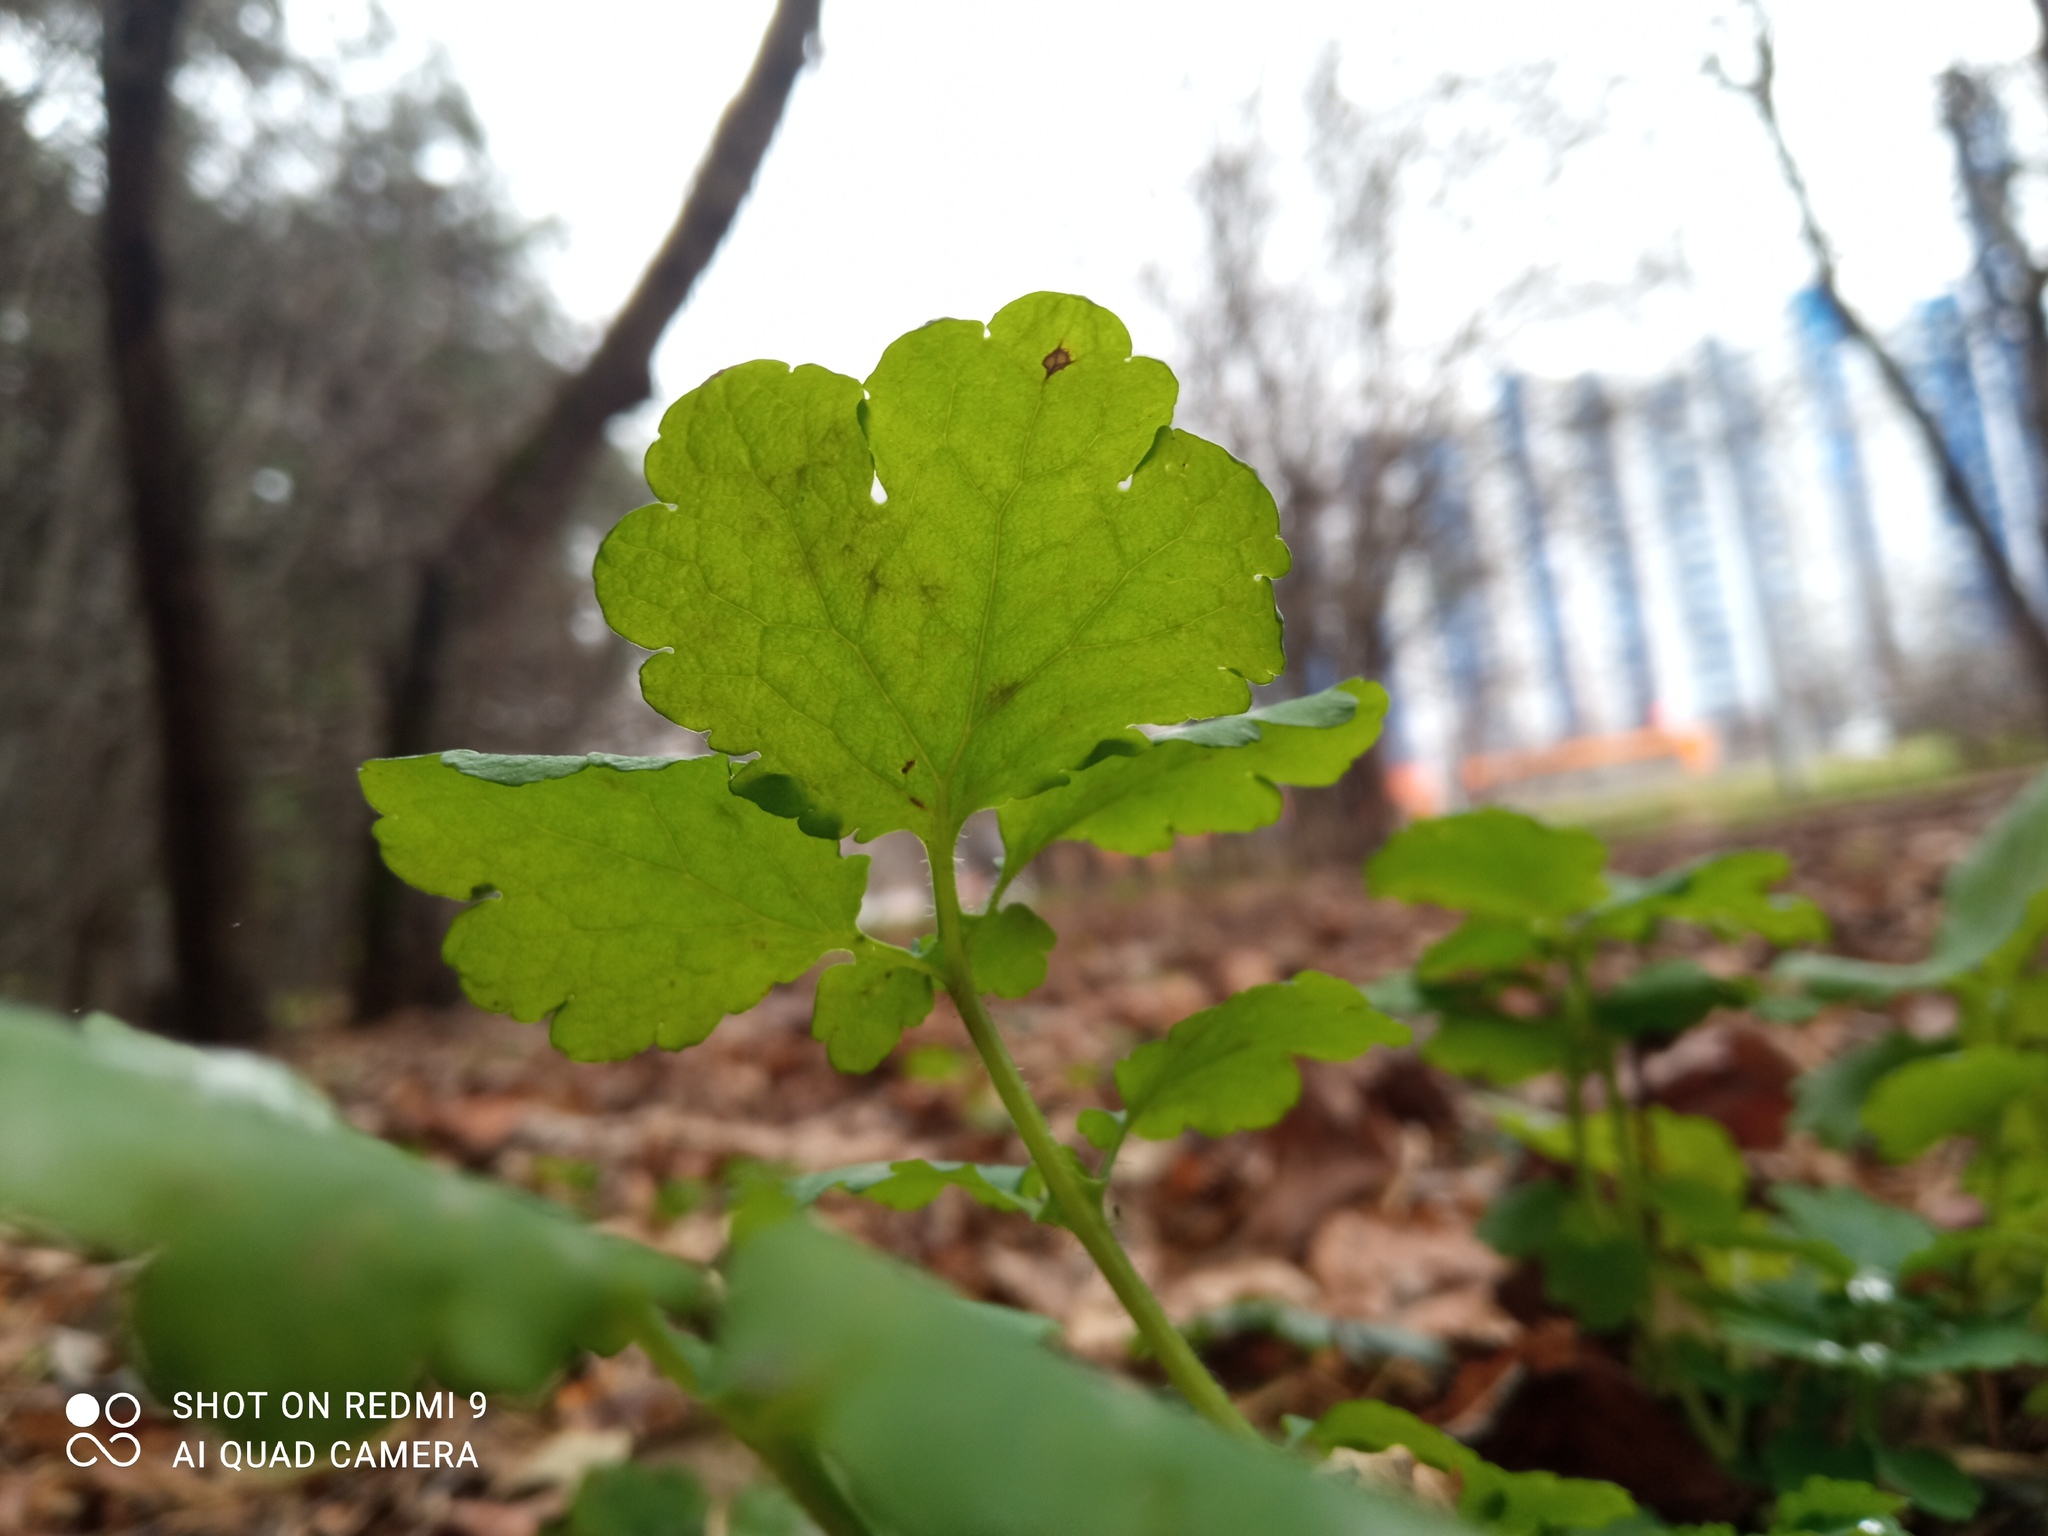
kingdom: Plantae
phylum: Tracheophyta
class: Magnoliopsida
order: Ranunculales
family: Papaveraceae
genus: Chelidonium
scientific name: Chelidonium majus
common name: Greater celandine
